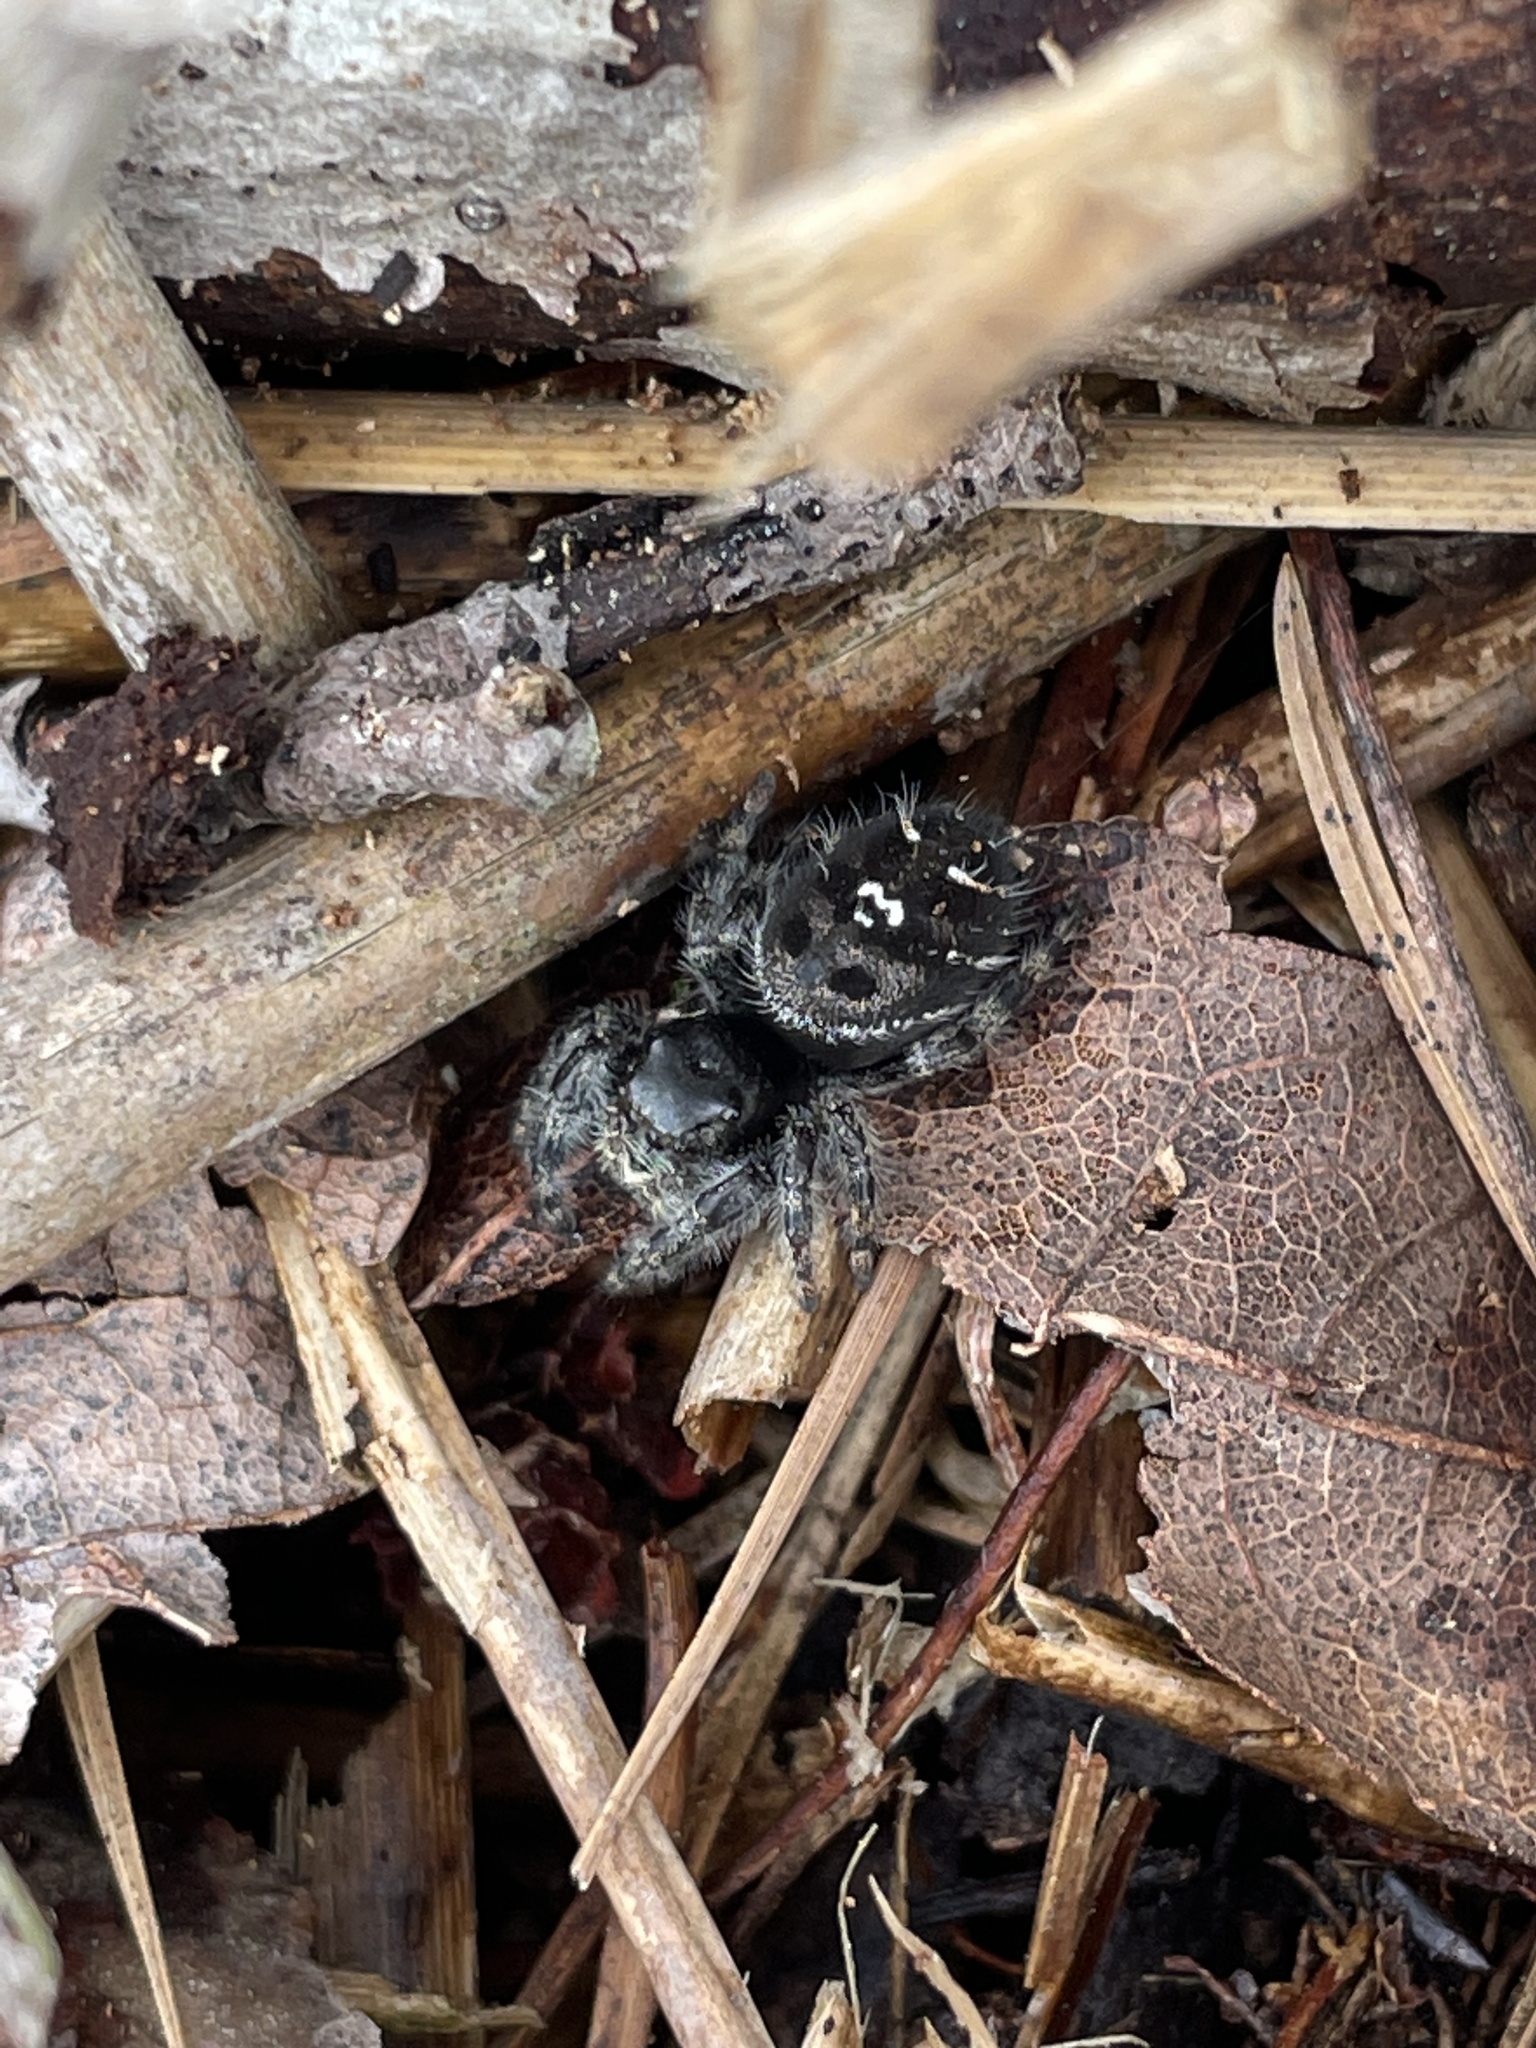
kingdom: Animalia
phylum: Arthropoda
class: Arachnida
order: Araneae
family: Salticidae
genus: Phidippus
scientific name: Phidippus audax
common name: Bold jumper
